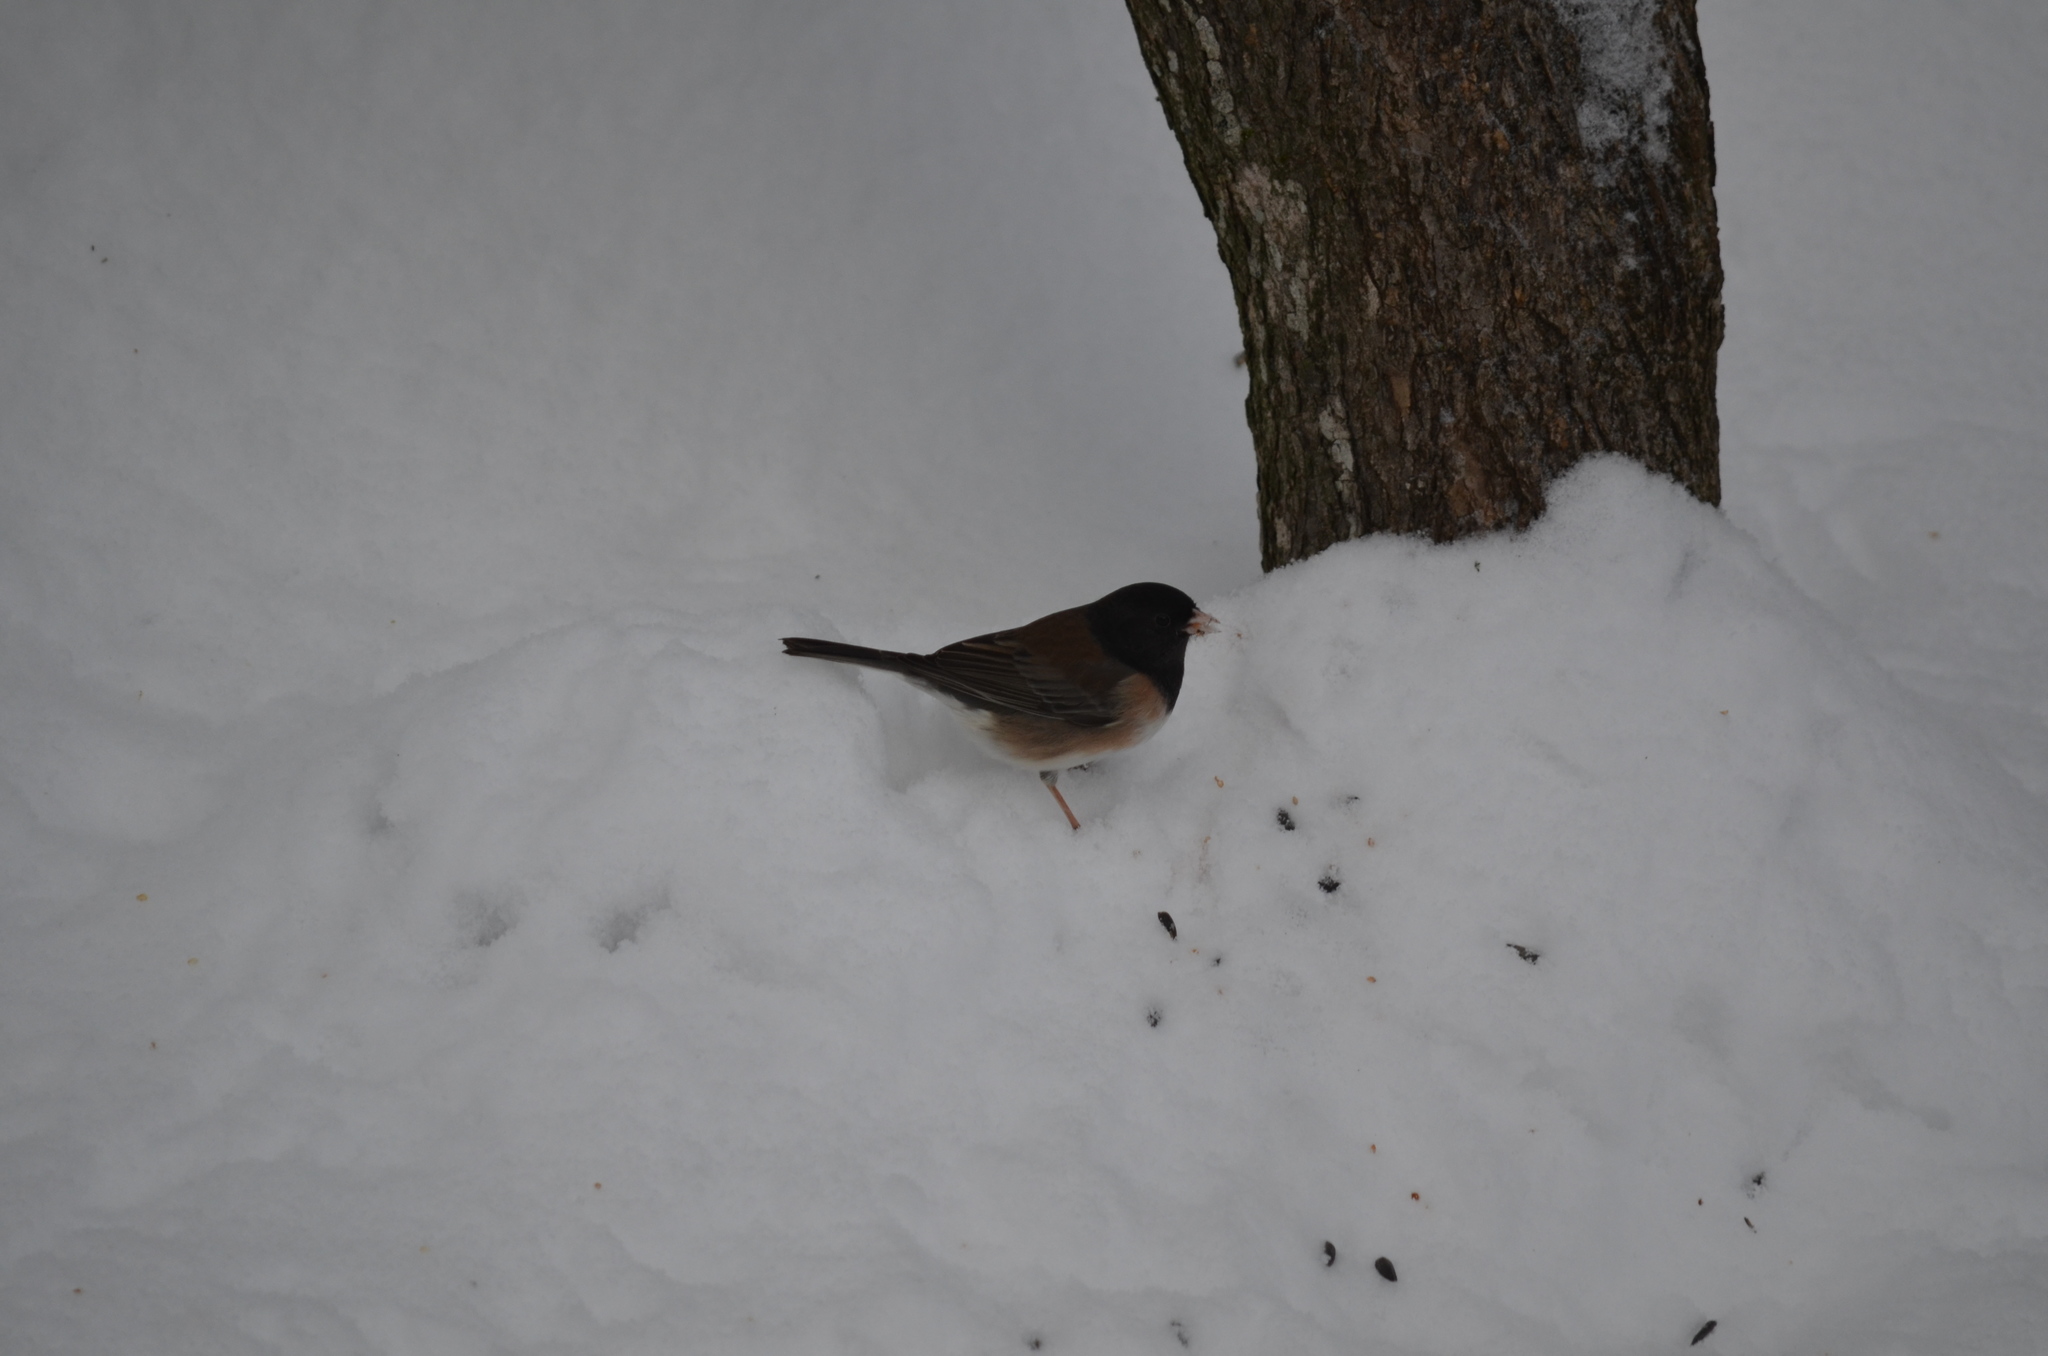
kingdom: Animalia
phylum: Chordata
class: Aves
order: Passeriformes
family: Passerellidae
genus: Junco
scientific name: Junco hyemalis
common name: Dark-eyed junco
